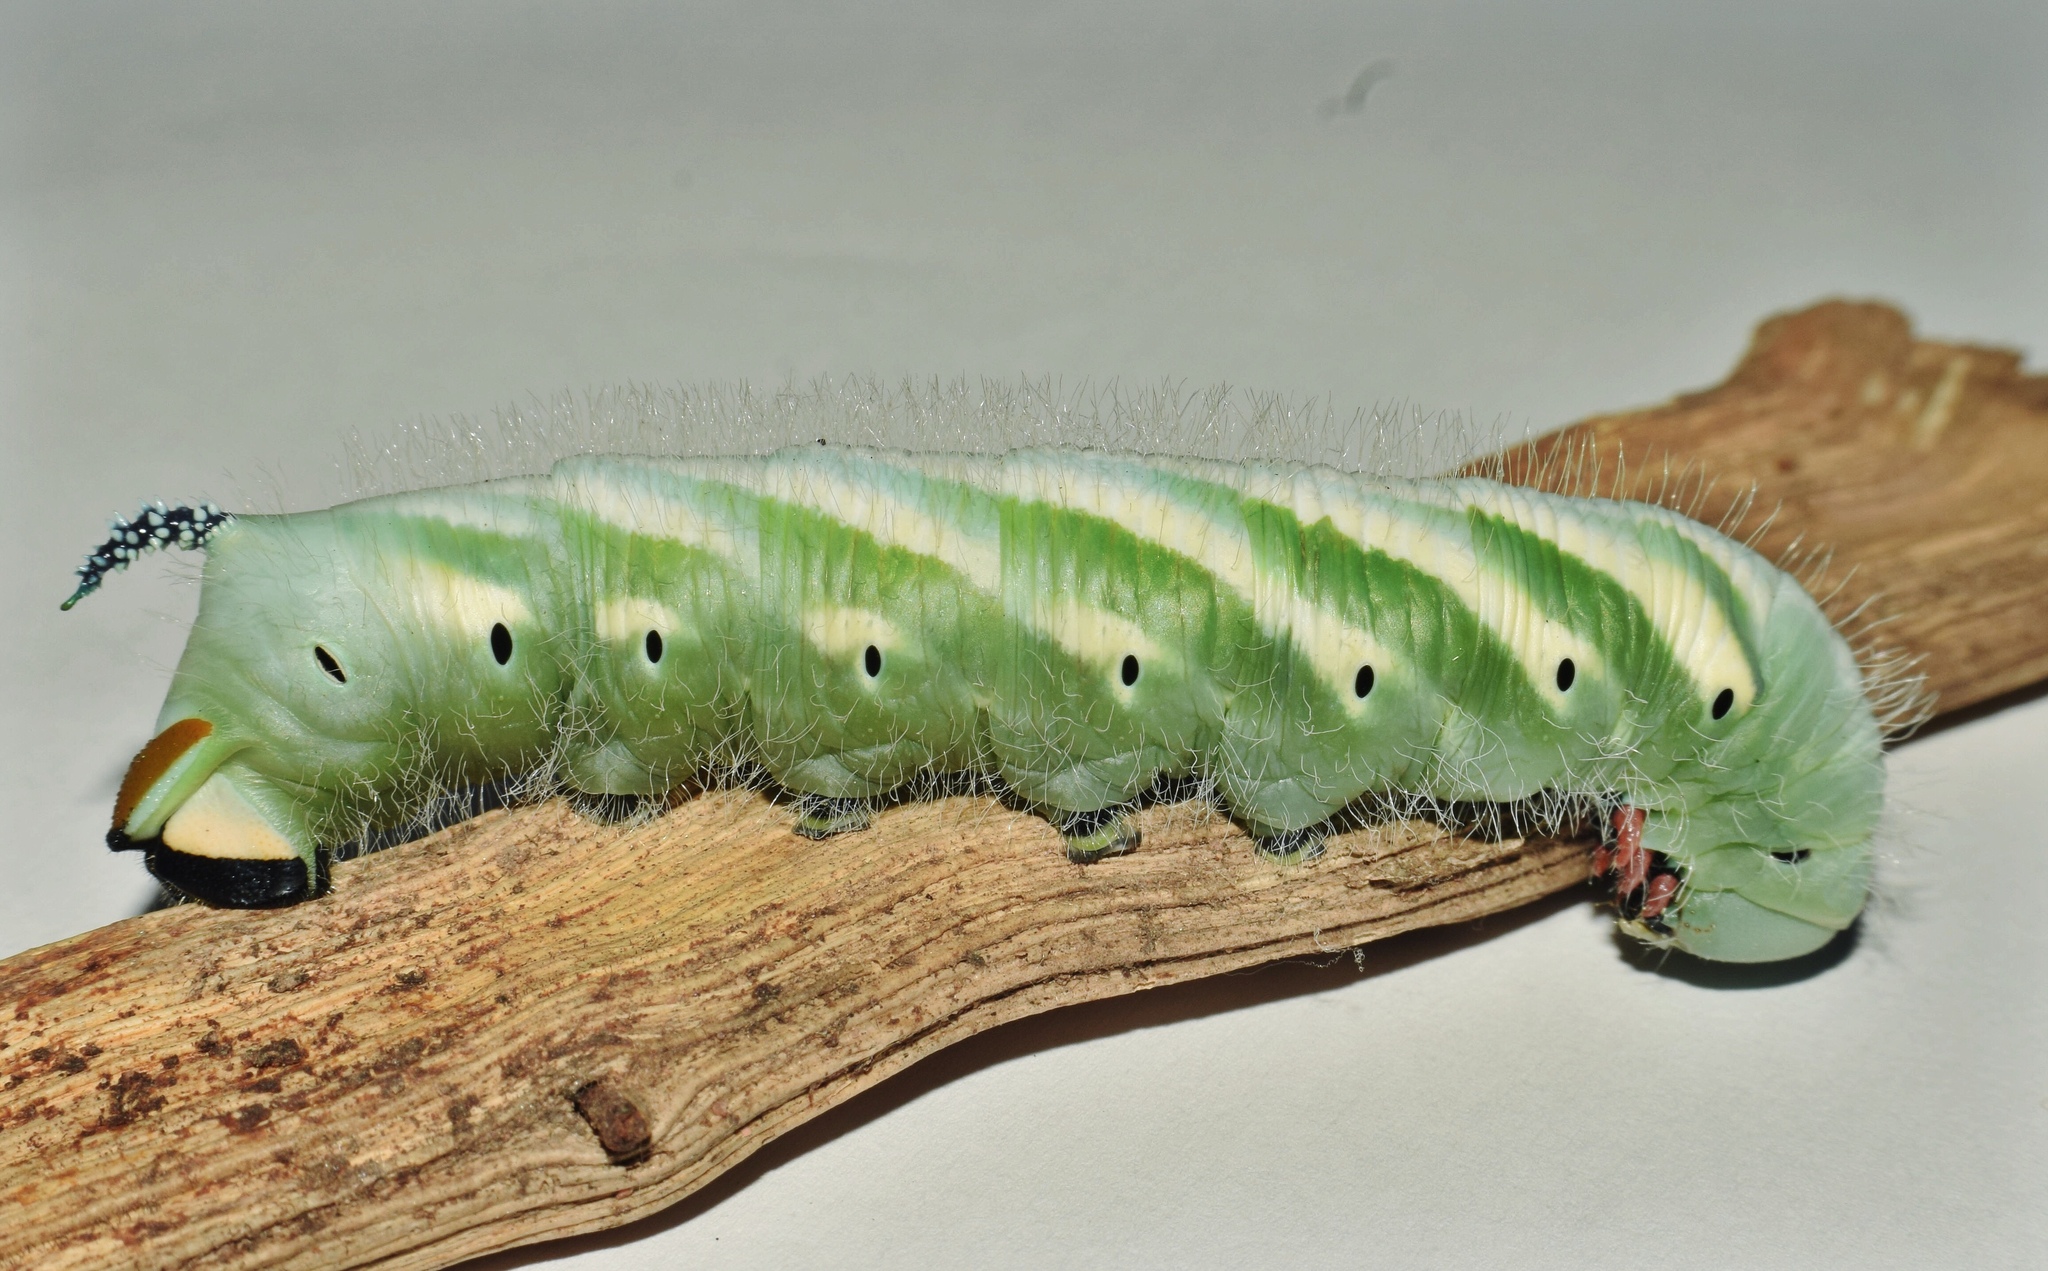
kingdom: Animalia
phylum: Arthropoda
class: Insecta
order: Lepidoptera
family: Sphingidae
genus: Xanthopan
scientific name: Xanthopan morganii
